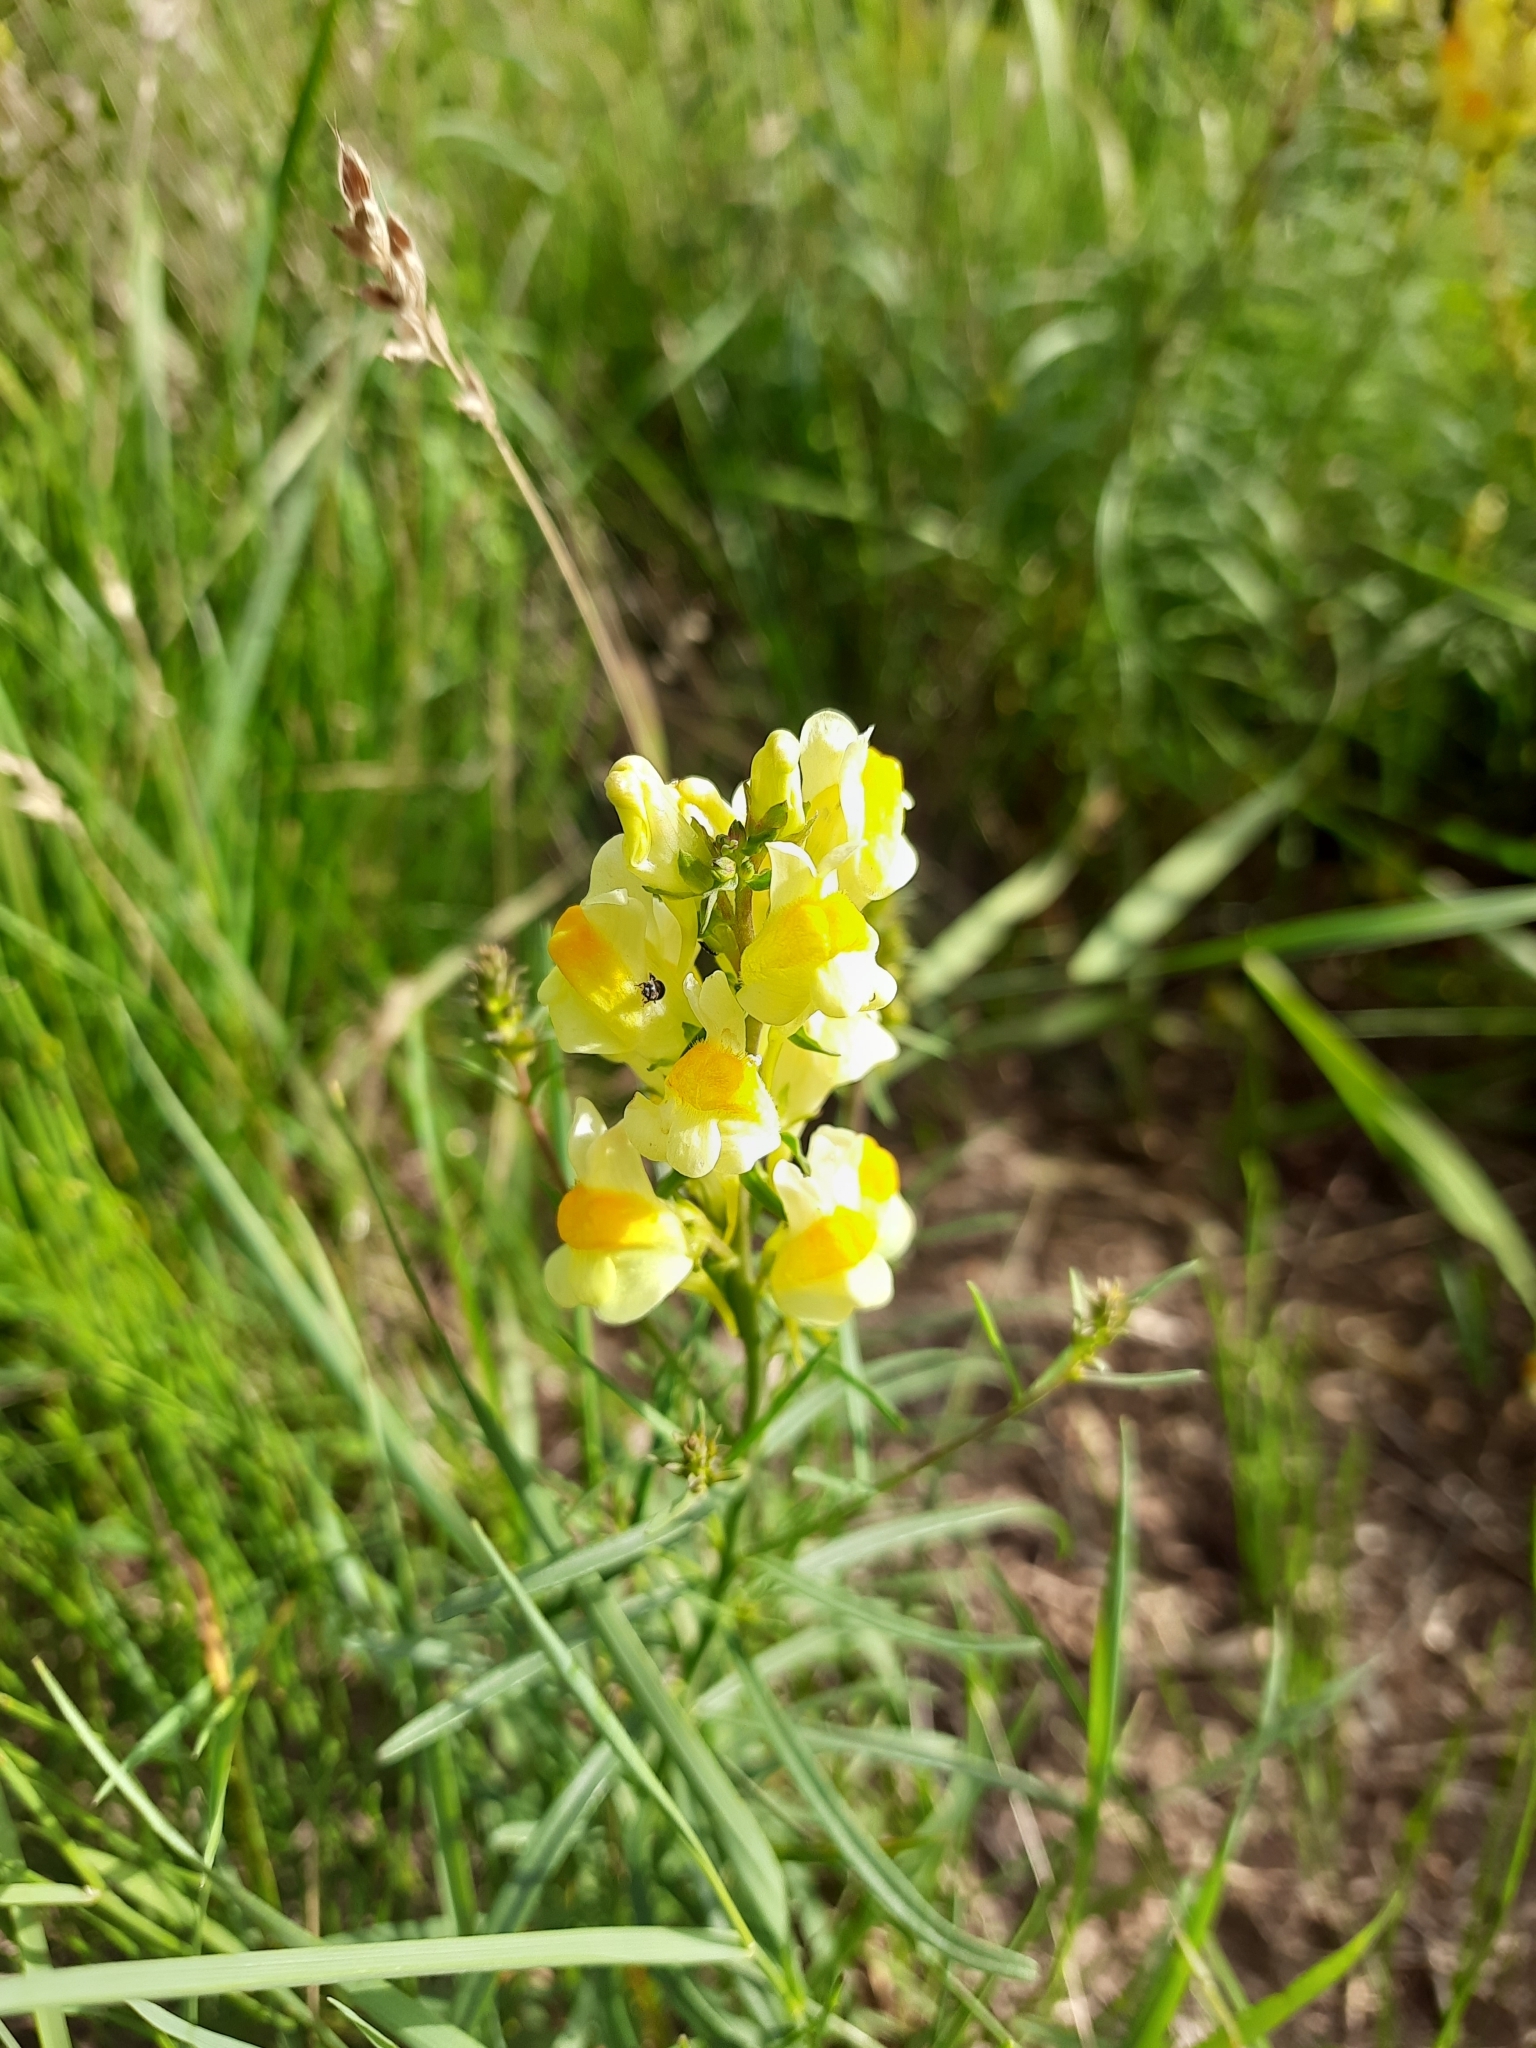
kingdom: Plantae
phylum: Tracheophyta
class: Magnoliopsida
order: Lamiales
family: Plantaginaceae
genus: Linaria
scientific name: Linaria vulgaris
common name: Butter and eggs
